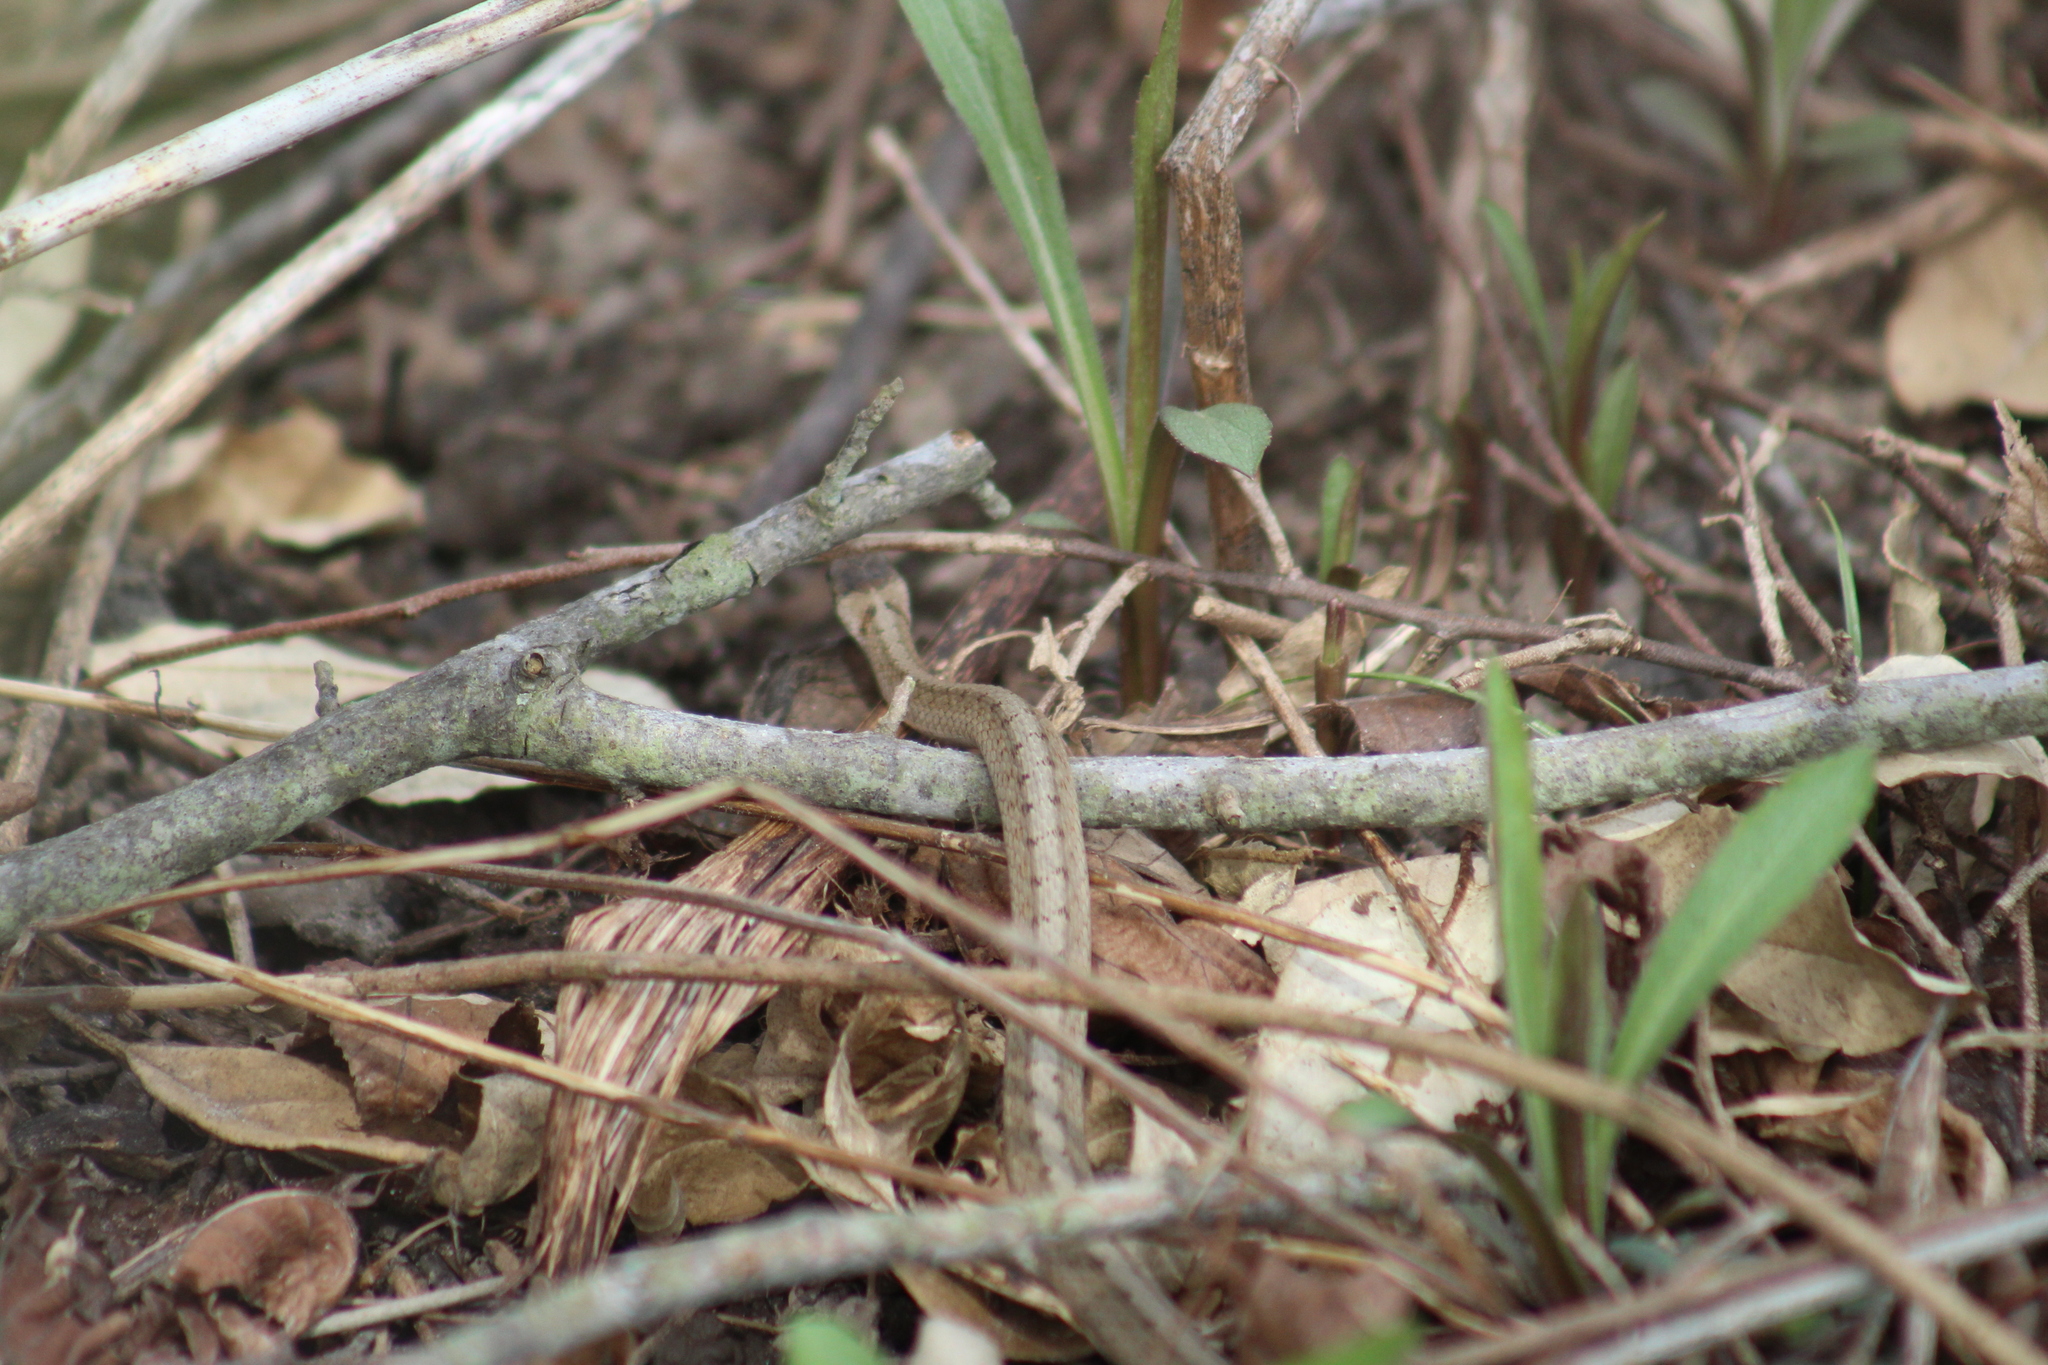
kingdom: Animalia
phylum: Chordata
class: Squamata
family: Colubridae
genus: Storeria
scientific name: Storeria dekayi
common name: (dekay’s) brown snake
